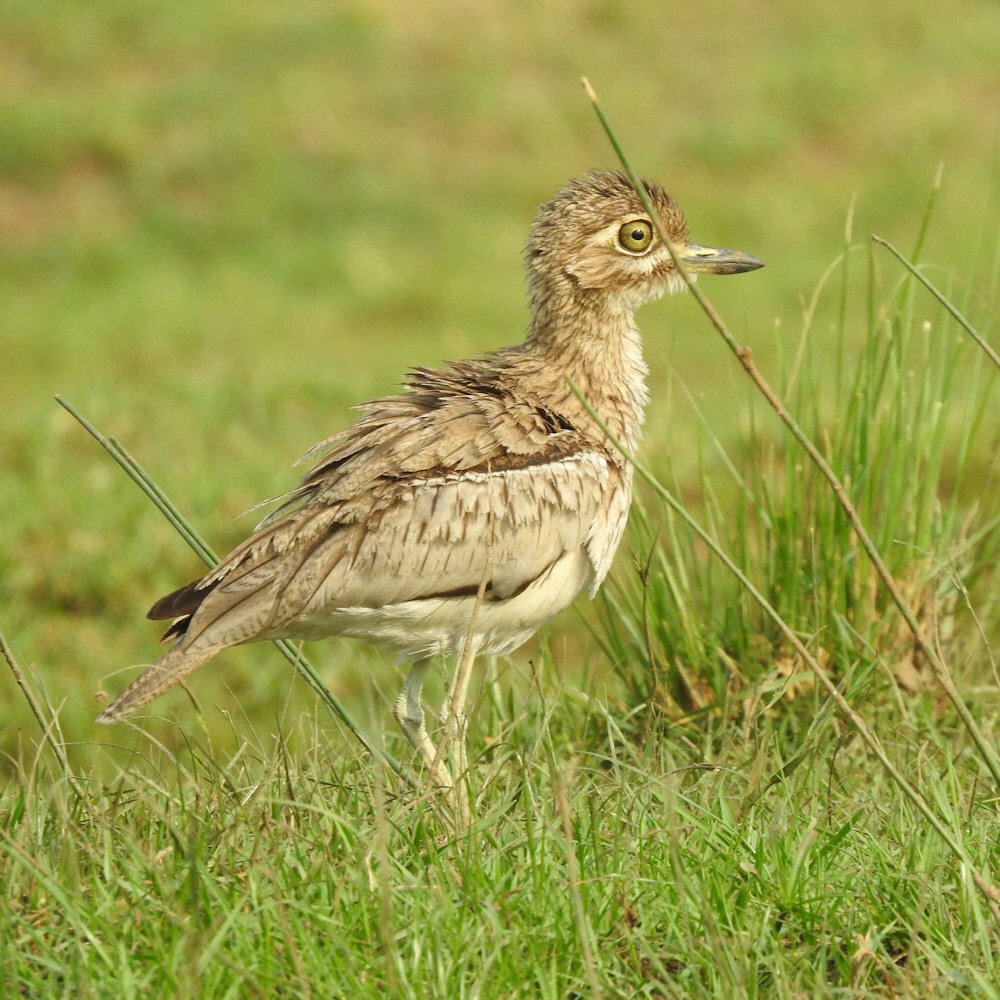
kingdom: Animalia
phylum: Chordata
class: Aves
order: Charadriiformes
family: Burhinidae
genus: Burhinus
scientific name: Burhinus vermiculatus
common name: Water thick-knee
